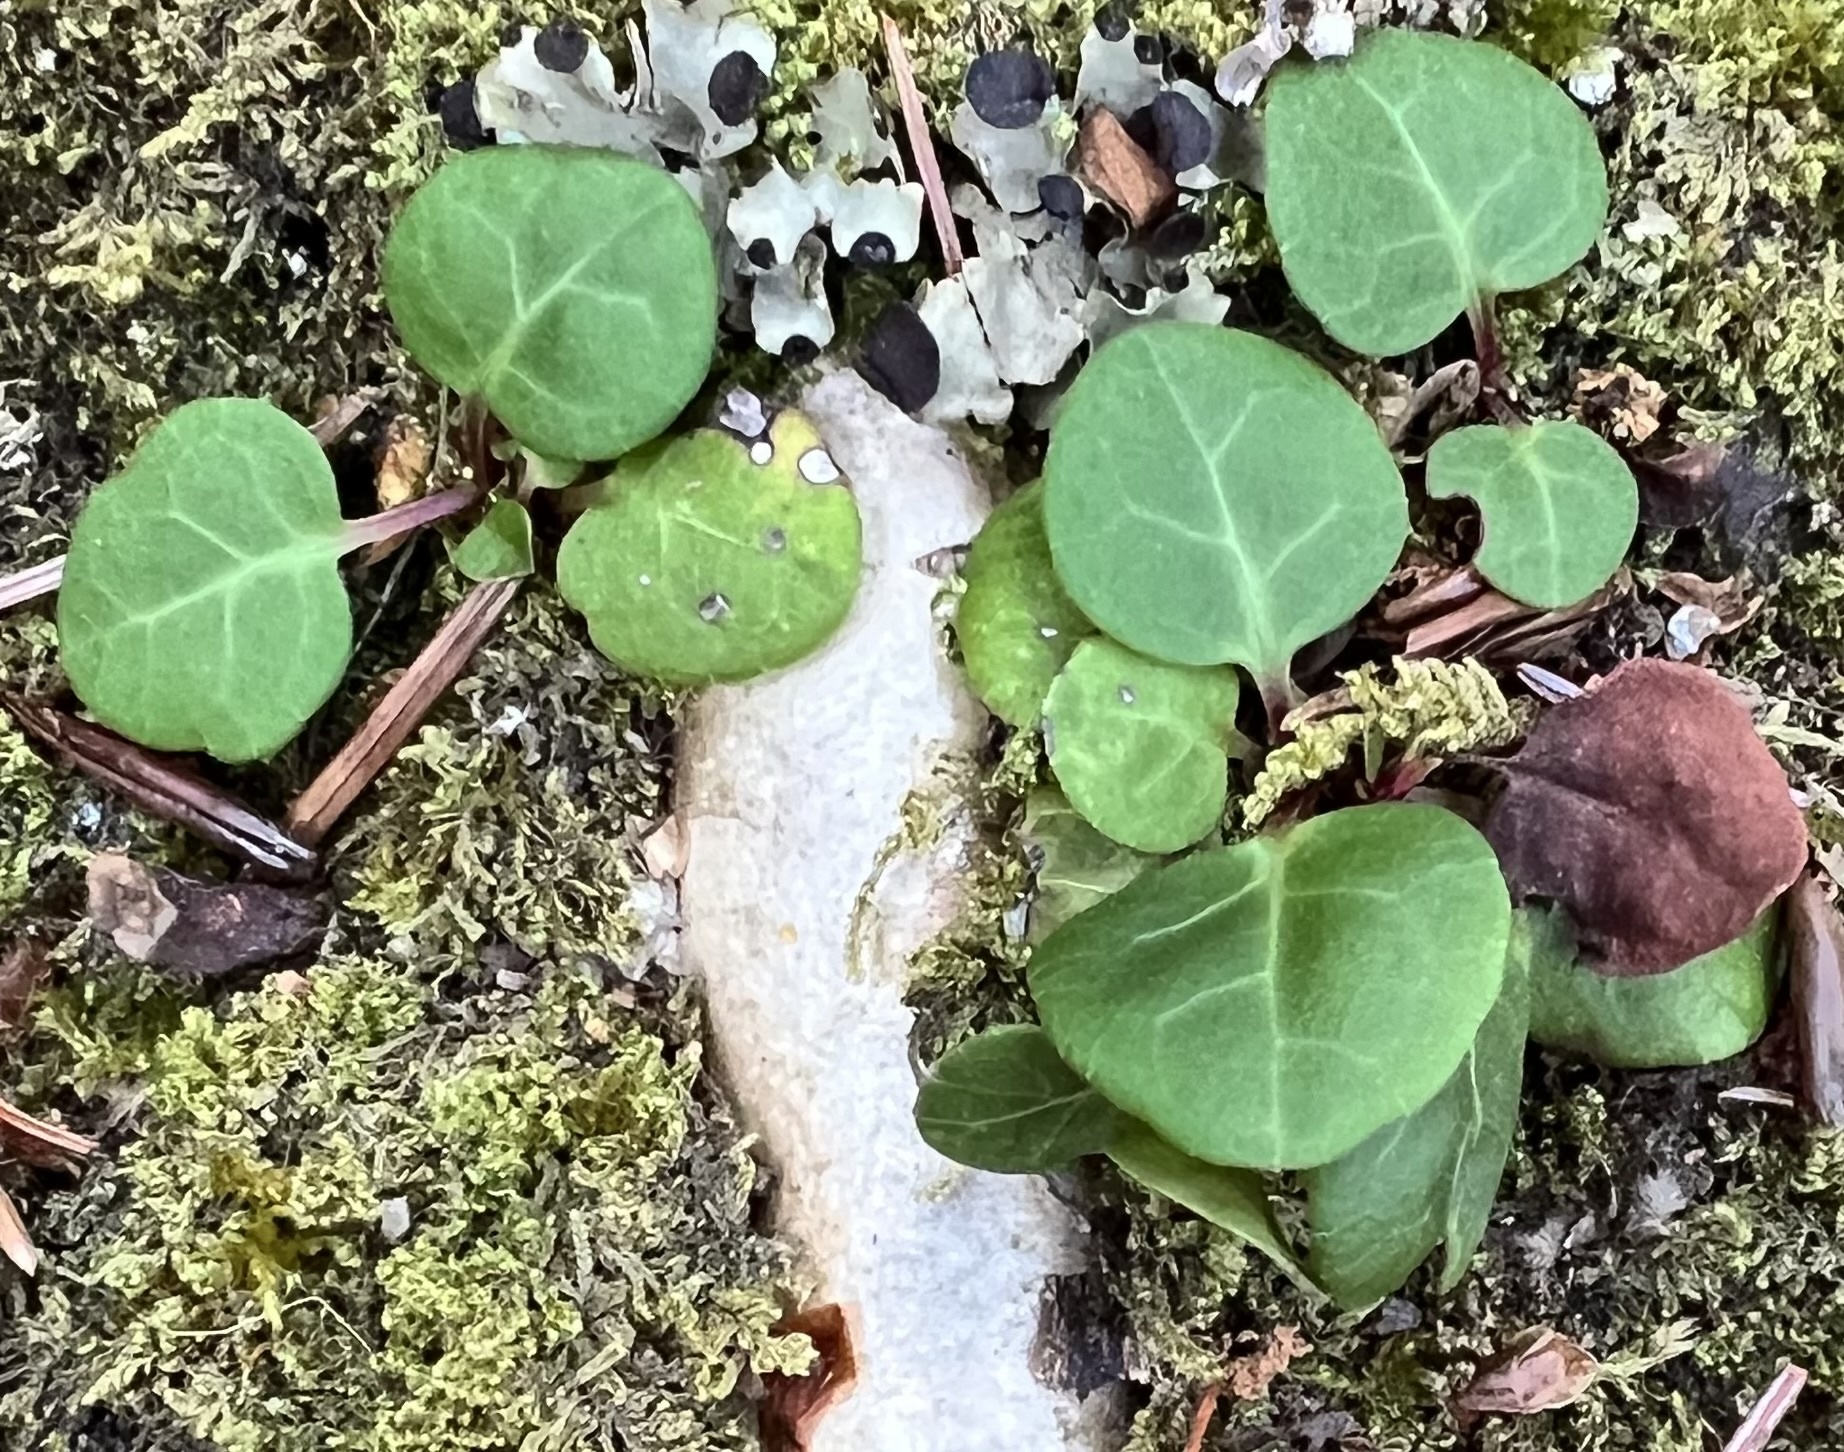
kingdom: Plantae
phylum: Tracheophyta
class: Magnoliopsida
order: Ericales
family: Ericaceae
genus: Pyrola
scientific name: Pyrola chlorantha
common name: Green wintergreen
